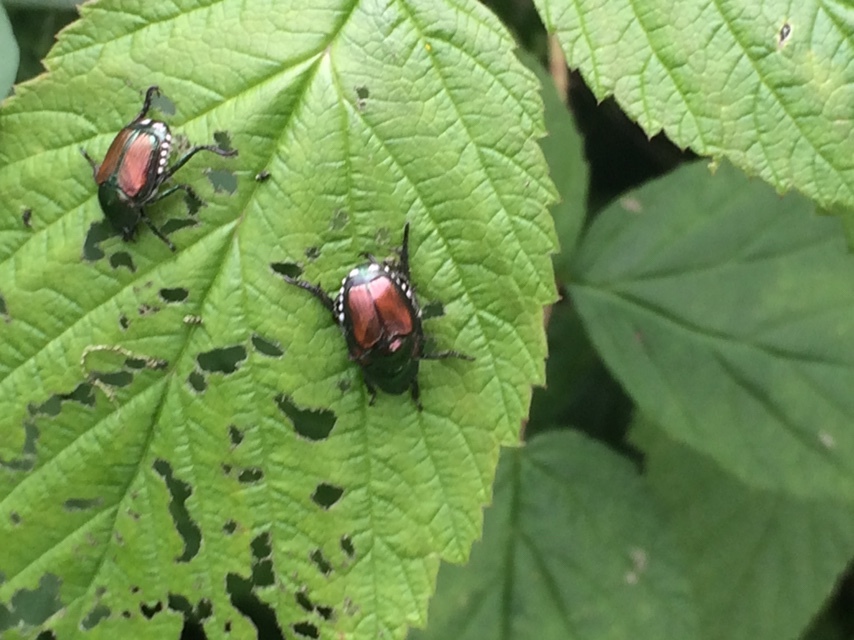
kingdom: Animalia
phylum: Arthropoda
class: Insecta
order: Coleoptera
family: Scarabaeidae
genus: Popillia
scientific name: Popillia japonica
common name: Japanese beetle
